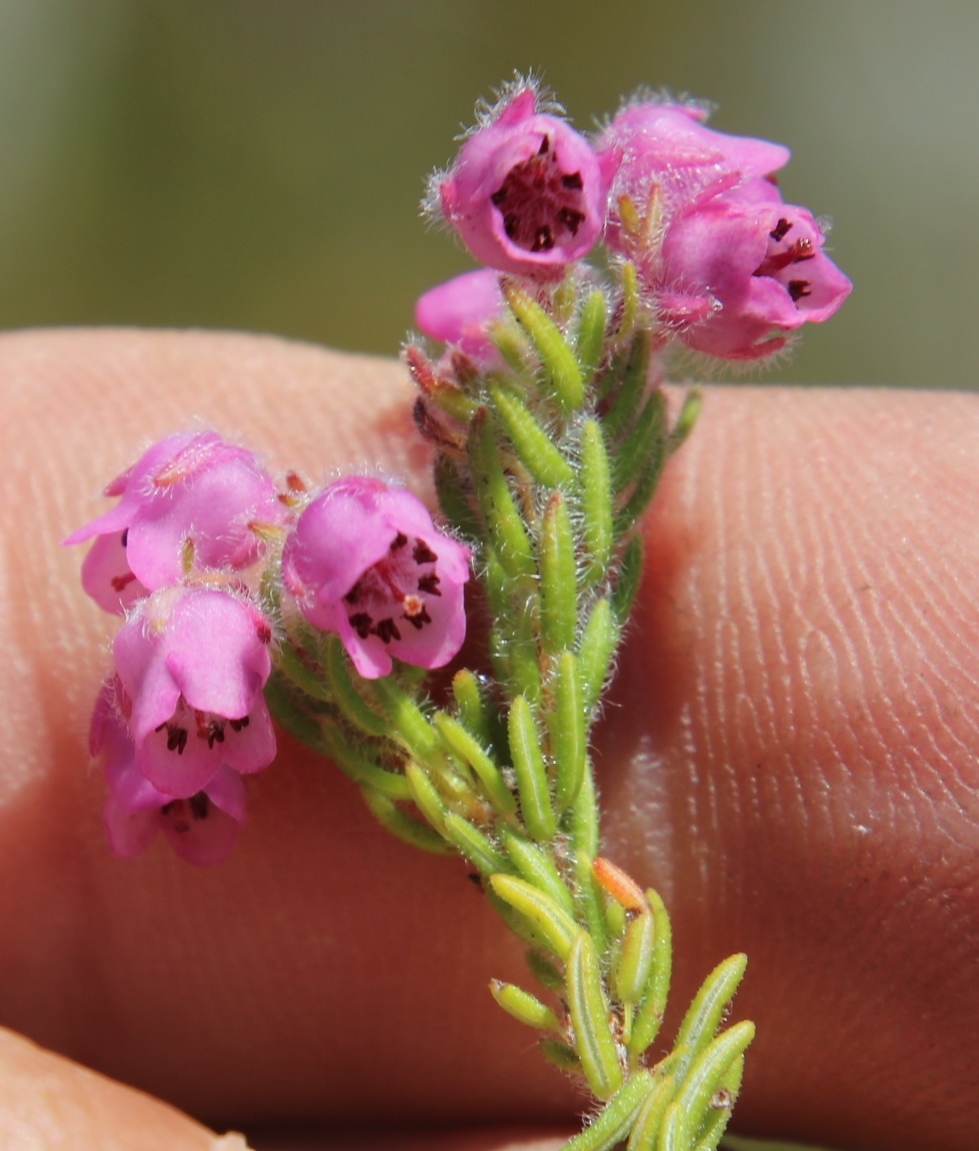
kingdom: Plantae
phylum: Tracheophyta
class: Magnoliopsida
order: Ericales
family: Ericaceae
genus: Erica
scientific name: Erica amoena
